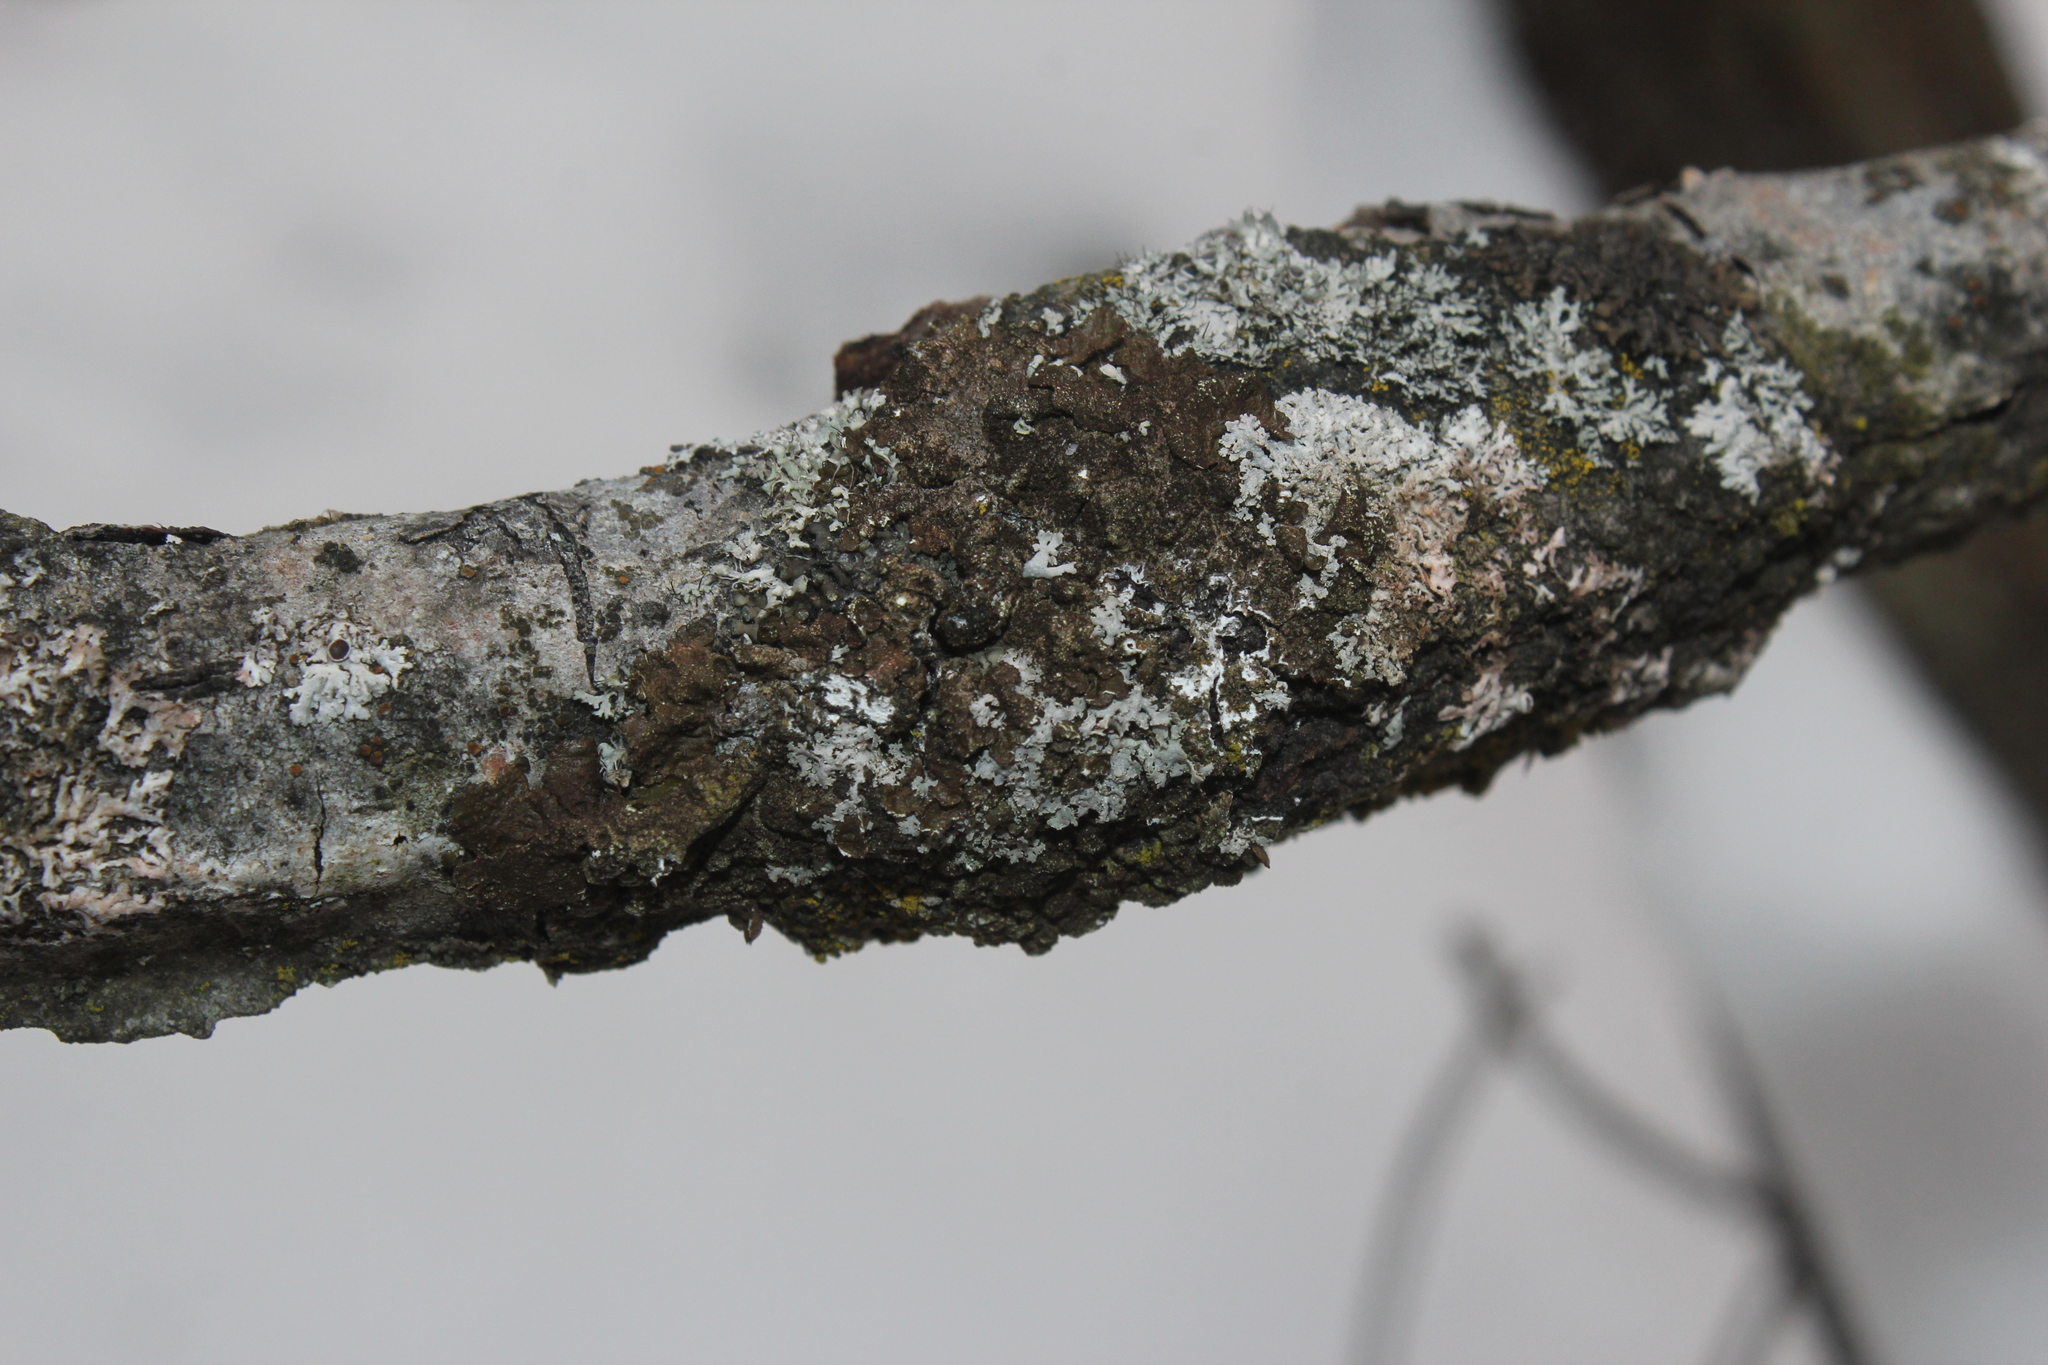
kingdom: Fungi
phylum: Ascomycota
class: Lecanoromycetes
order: Lecanorales
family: Parmeliaceae
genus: Melanelixia
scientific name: Melanelixia subaurifera
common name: Abraded camouflage lichen
